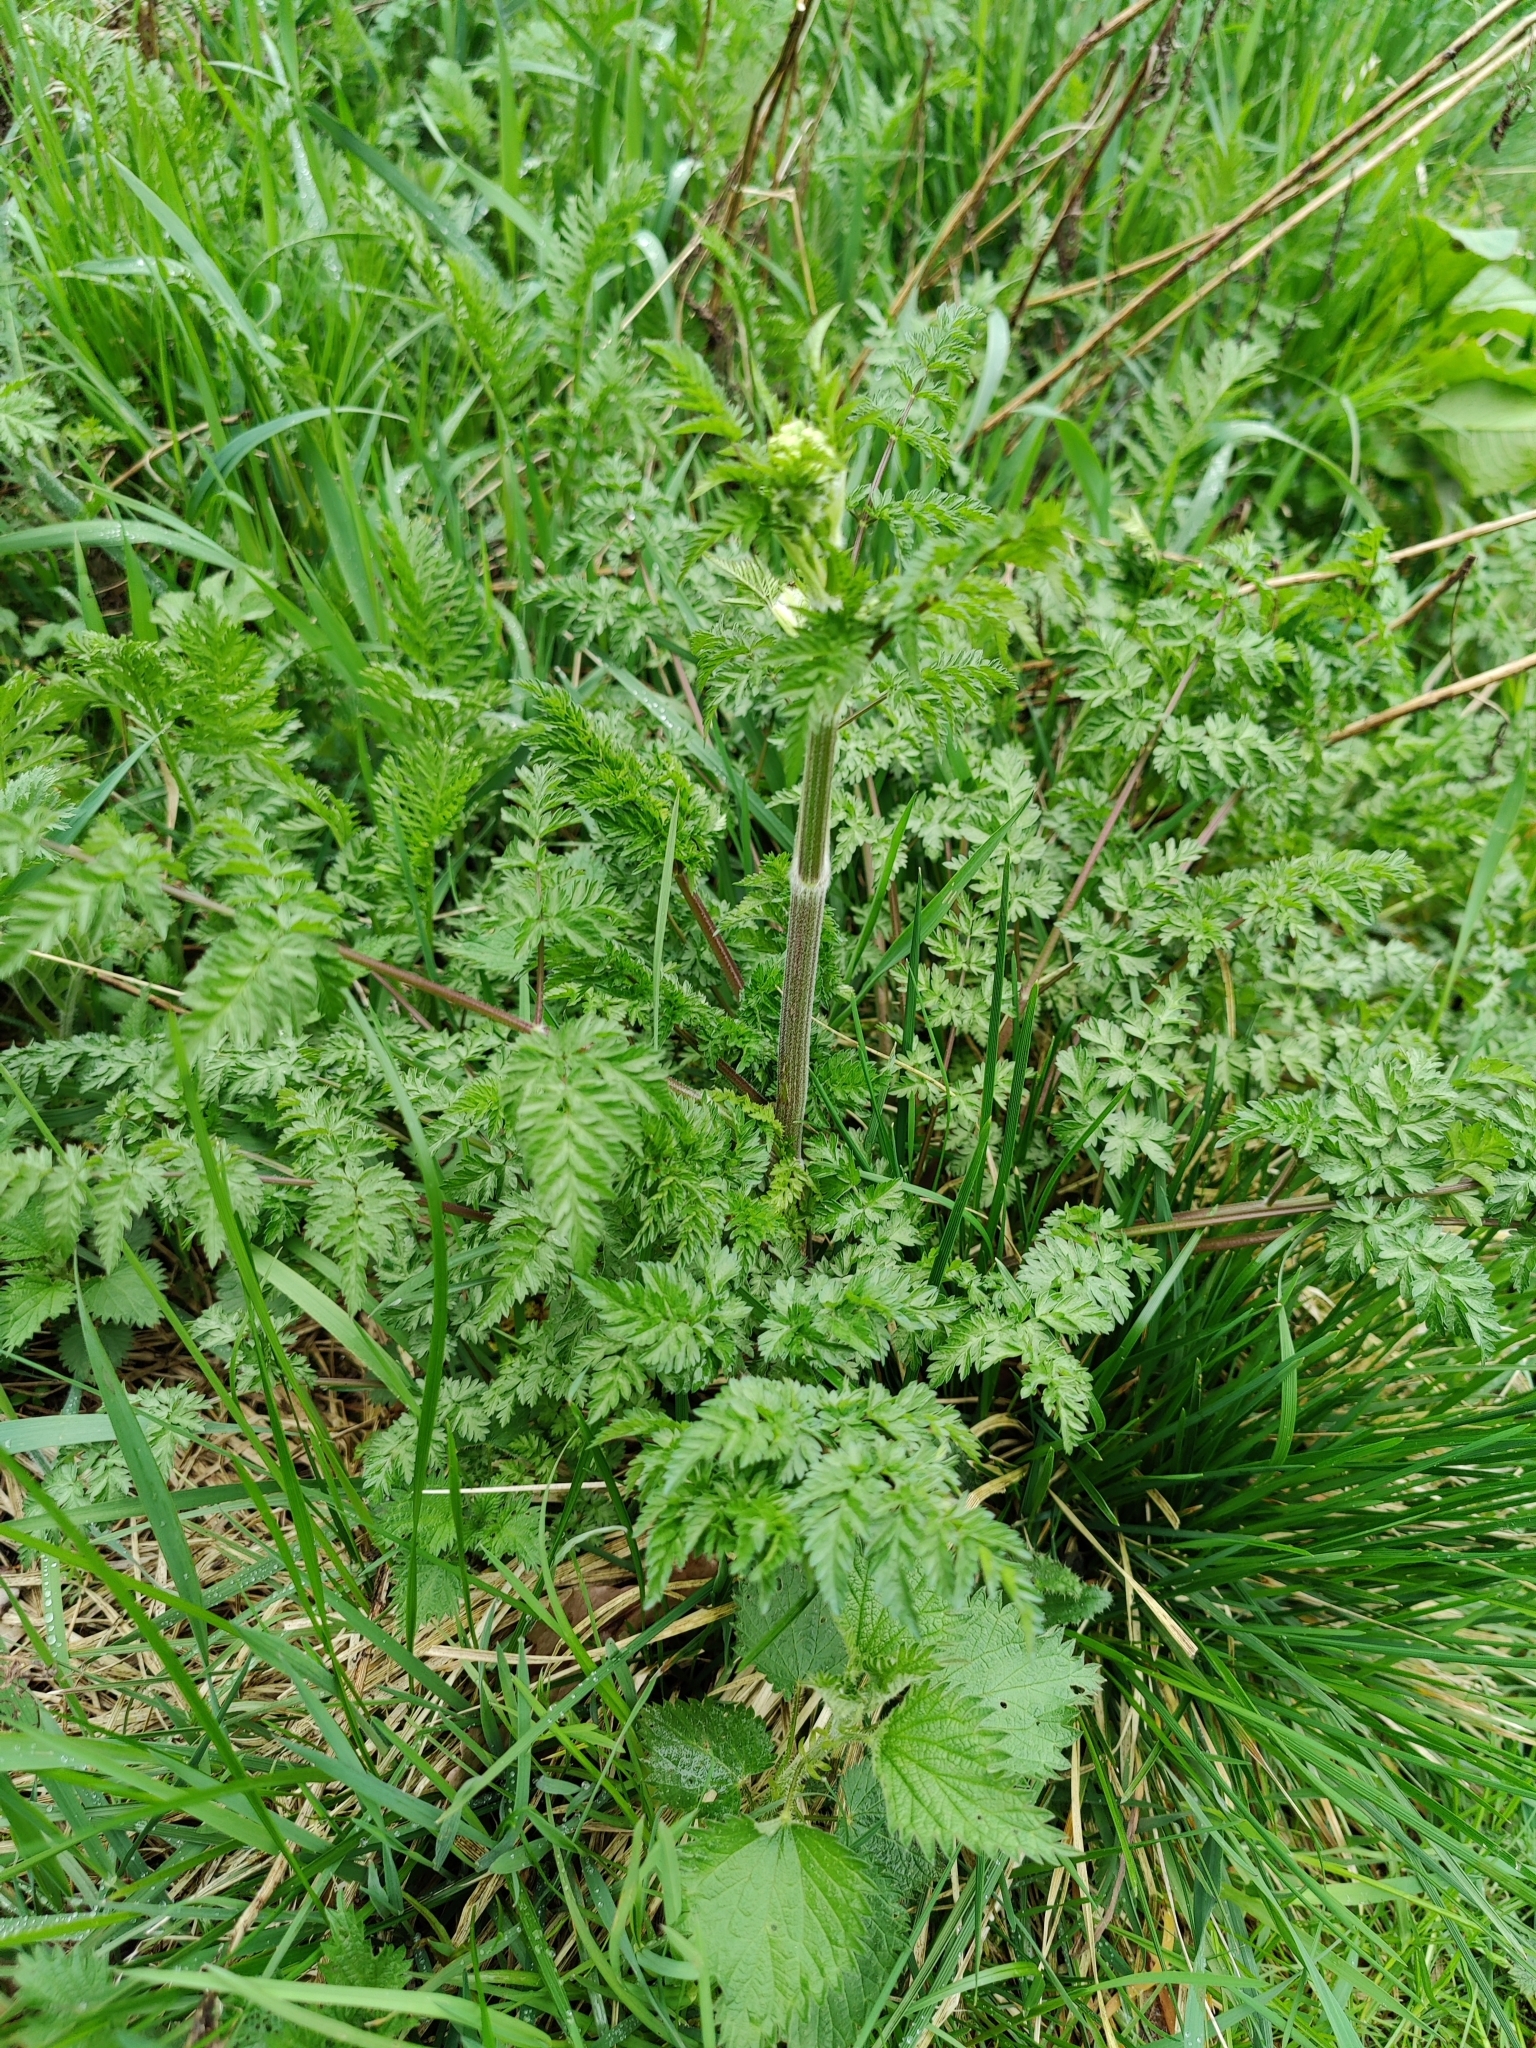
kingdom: Plantae
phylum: Tracheophyta
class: Magnoliopsida
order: Apiales
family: Apiaceae
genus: Anthriscus
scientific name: Anthriscus sylvestris
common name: Cow parsley
